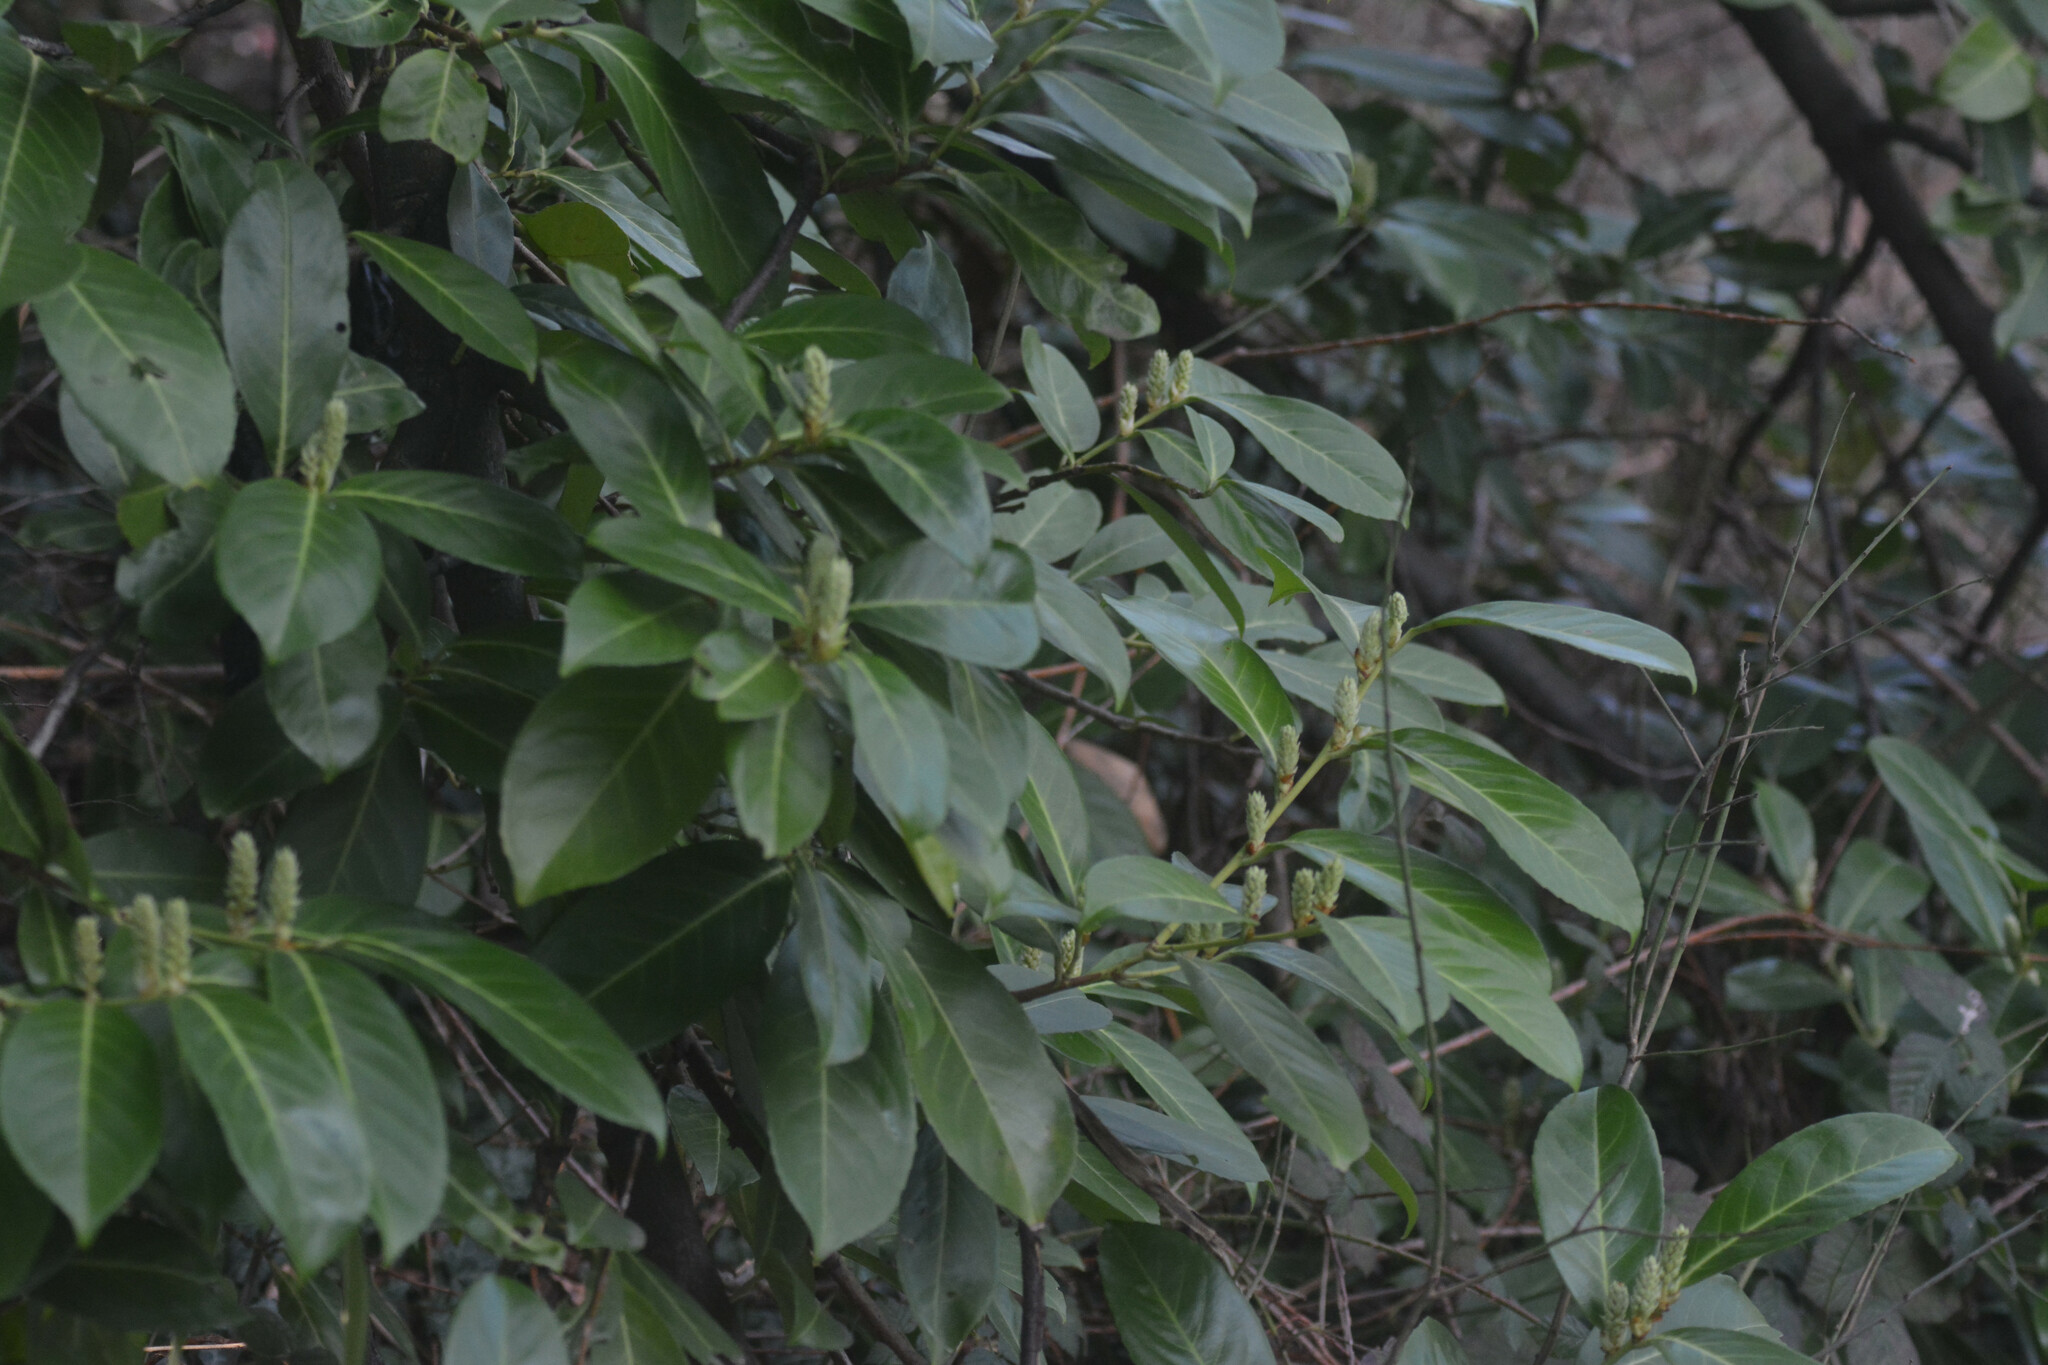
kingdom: Plantae
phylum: Tracheophyta
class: Magnoliopsida
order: Rosales
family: Rosaceae
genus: Prunus
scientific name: Prunus laurocerasus
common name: Cherry laurel
